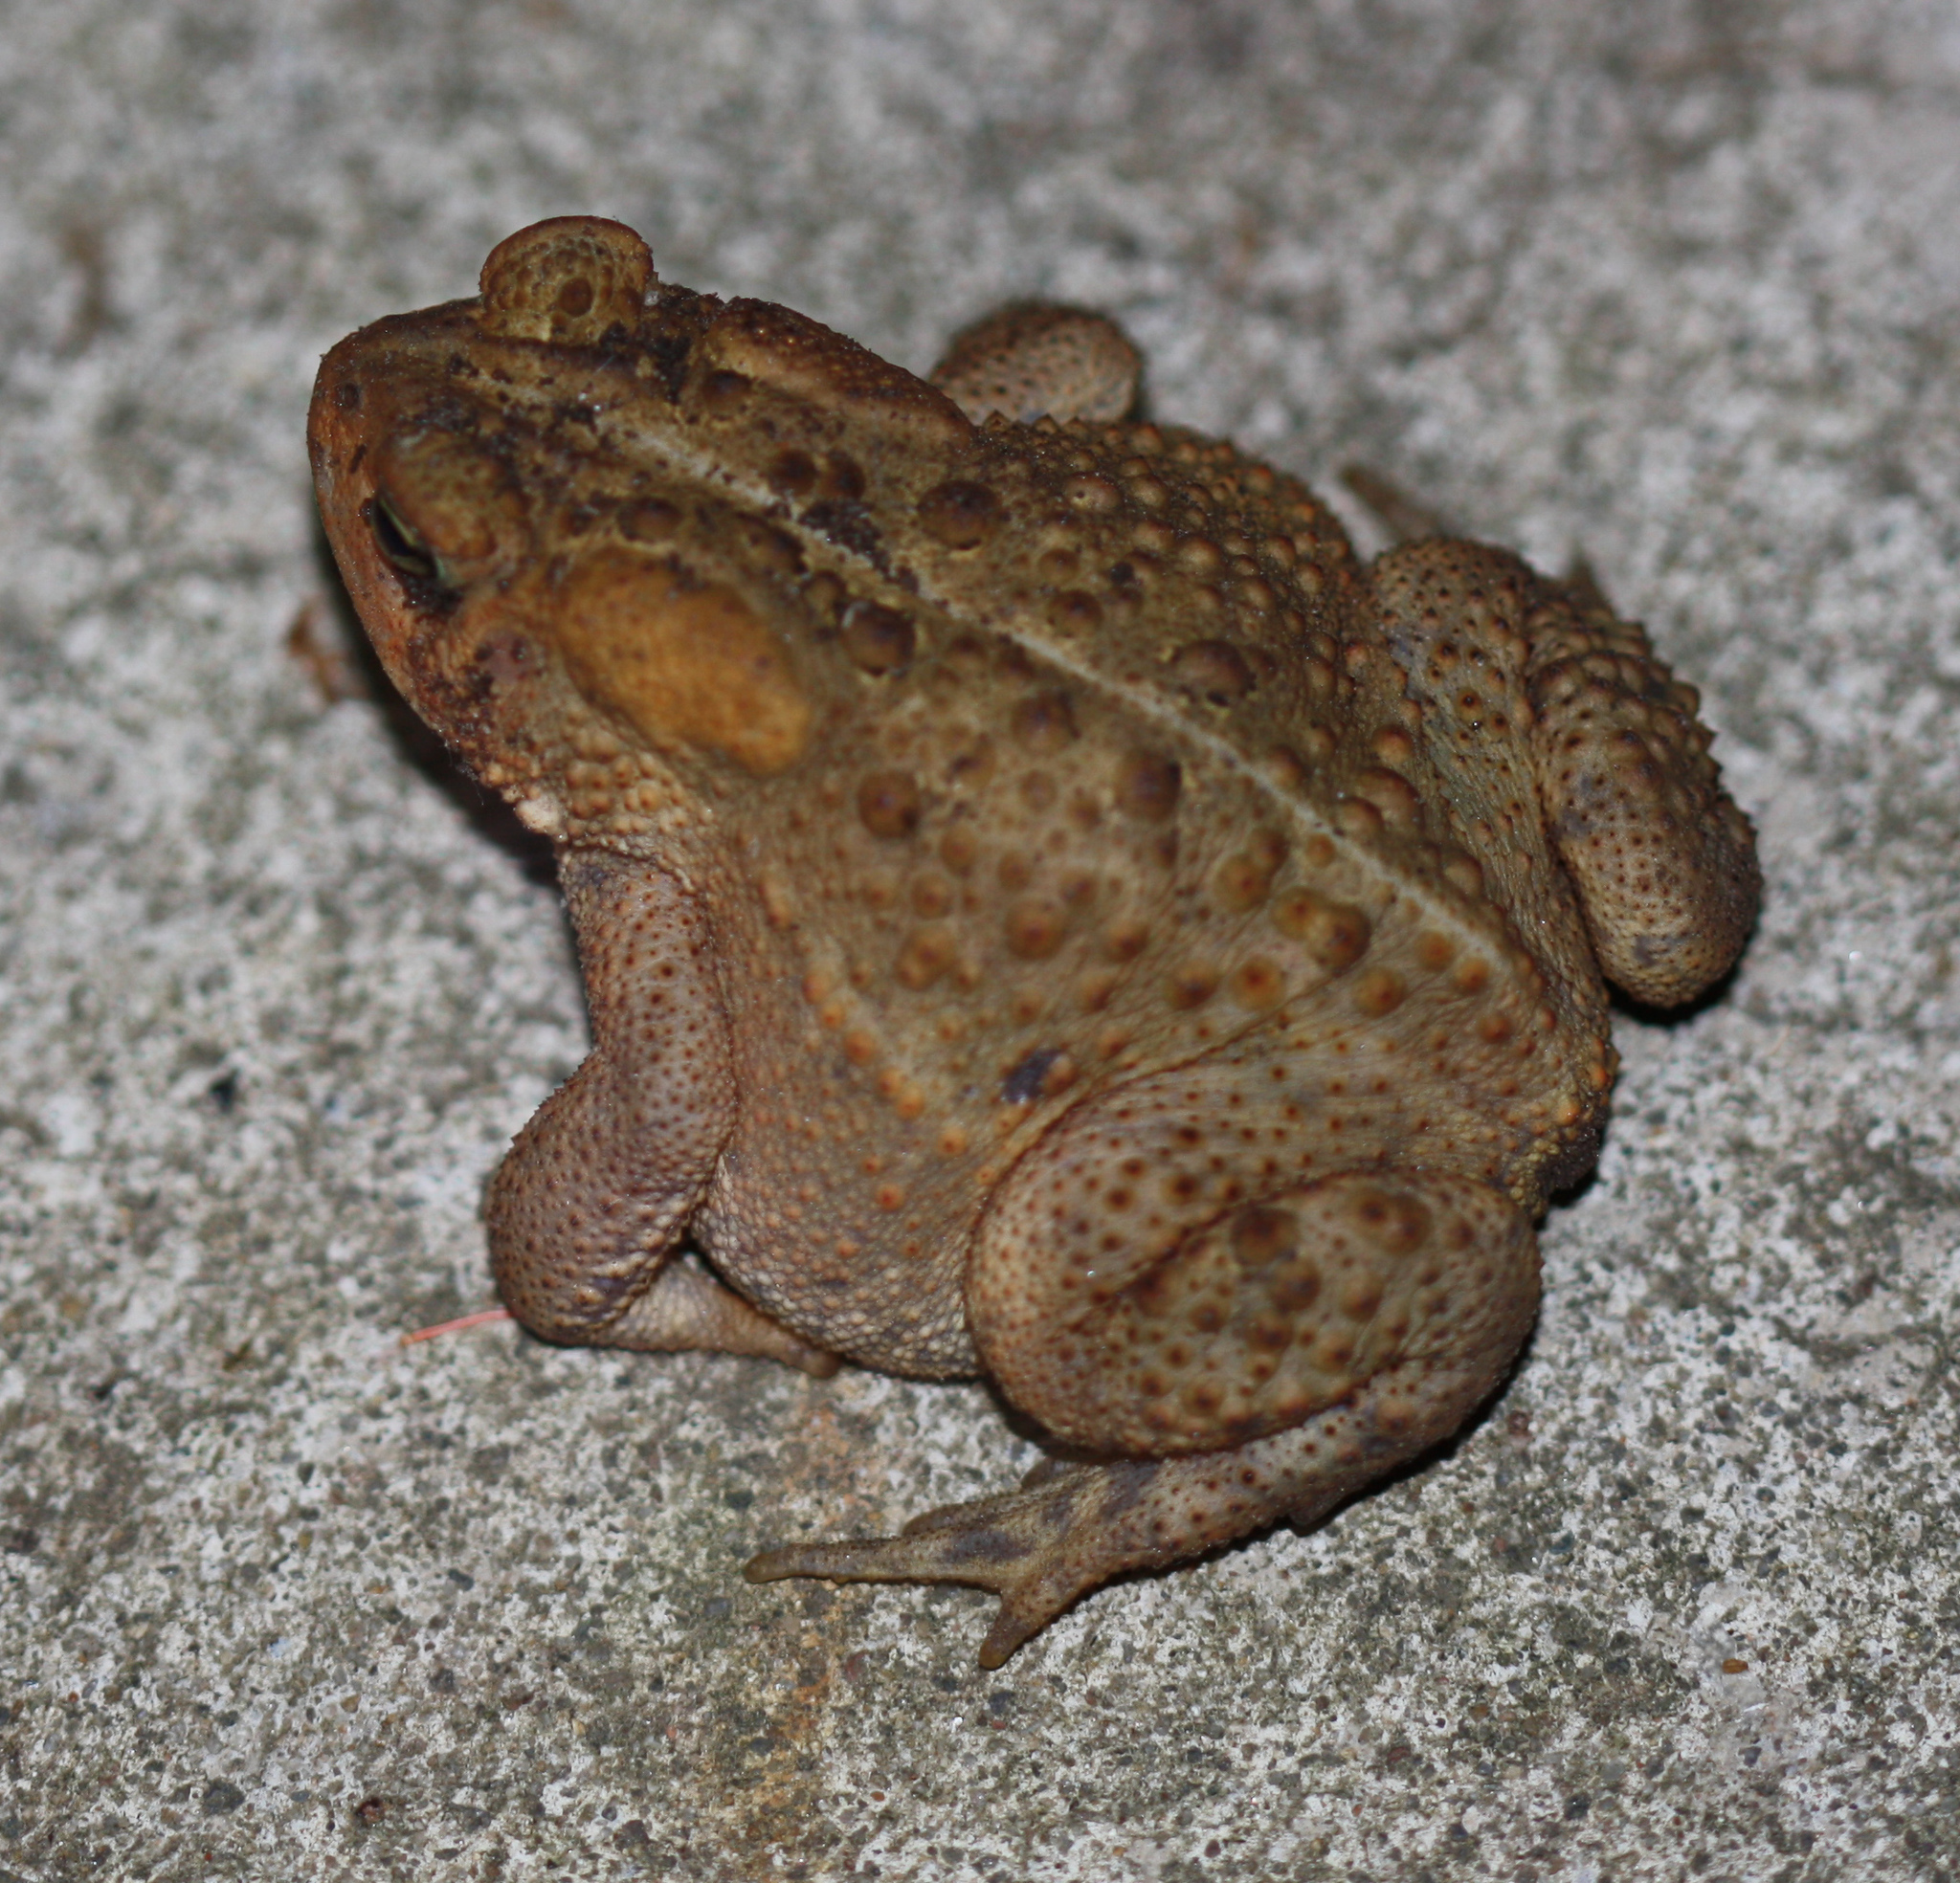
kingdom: Animalia
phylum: Chordata
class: Amphibia
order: Anura
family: Bufonidae
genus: Anaxyrus
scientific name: Anaxyrus americanus
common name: American toad
